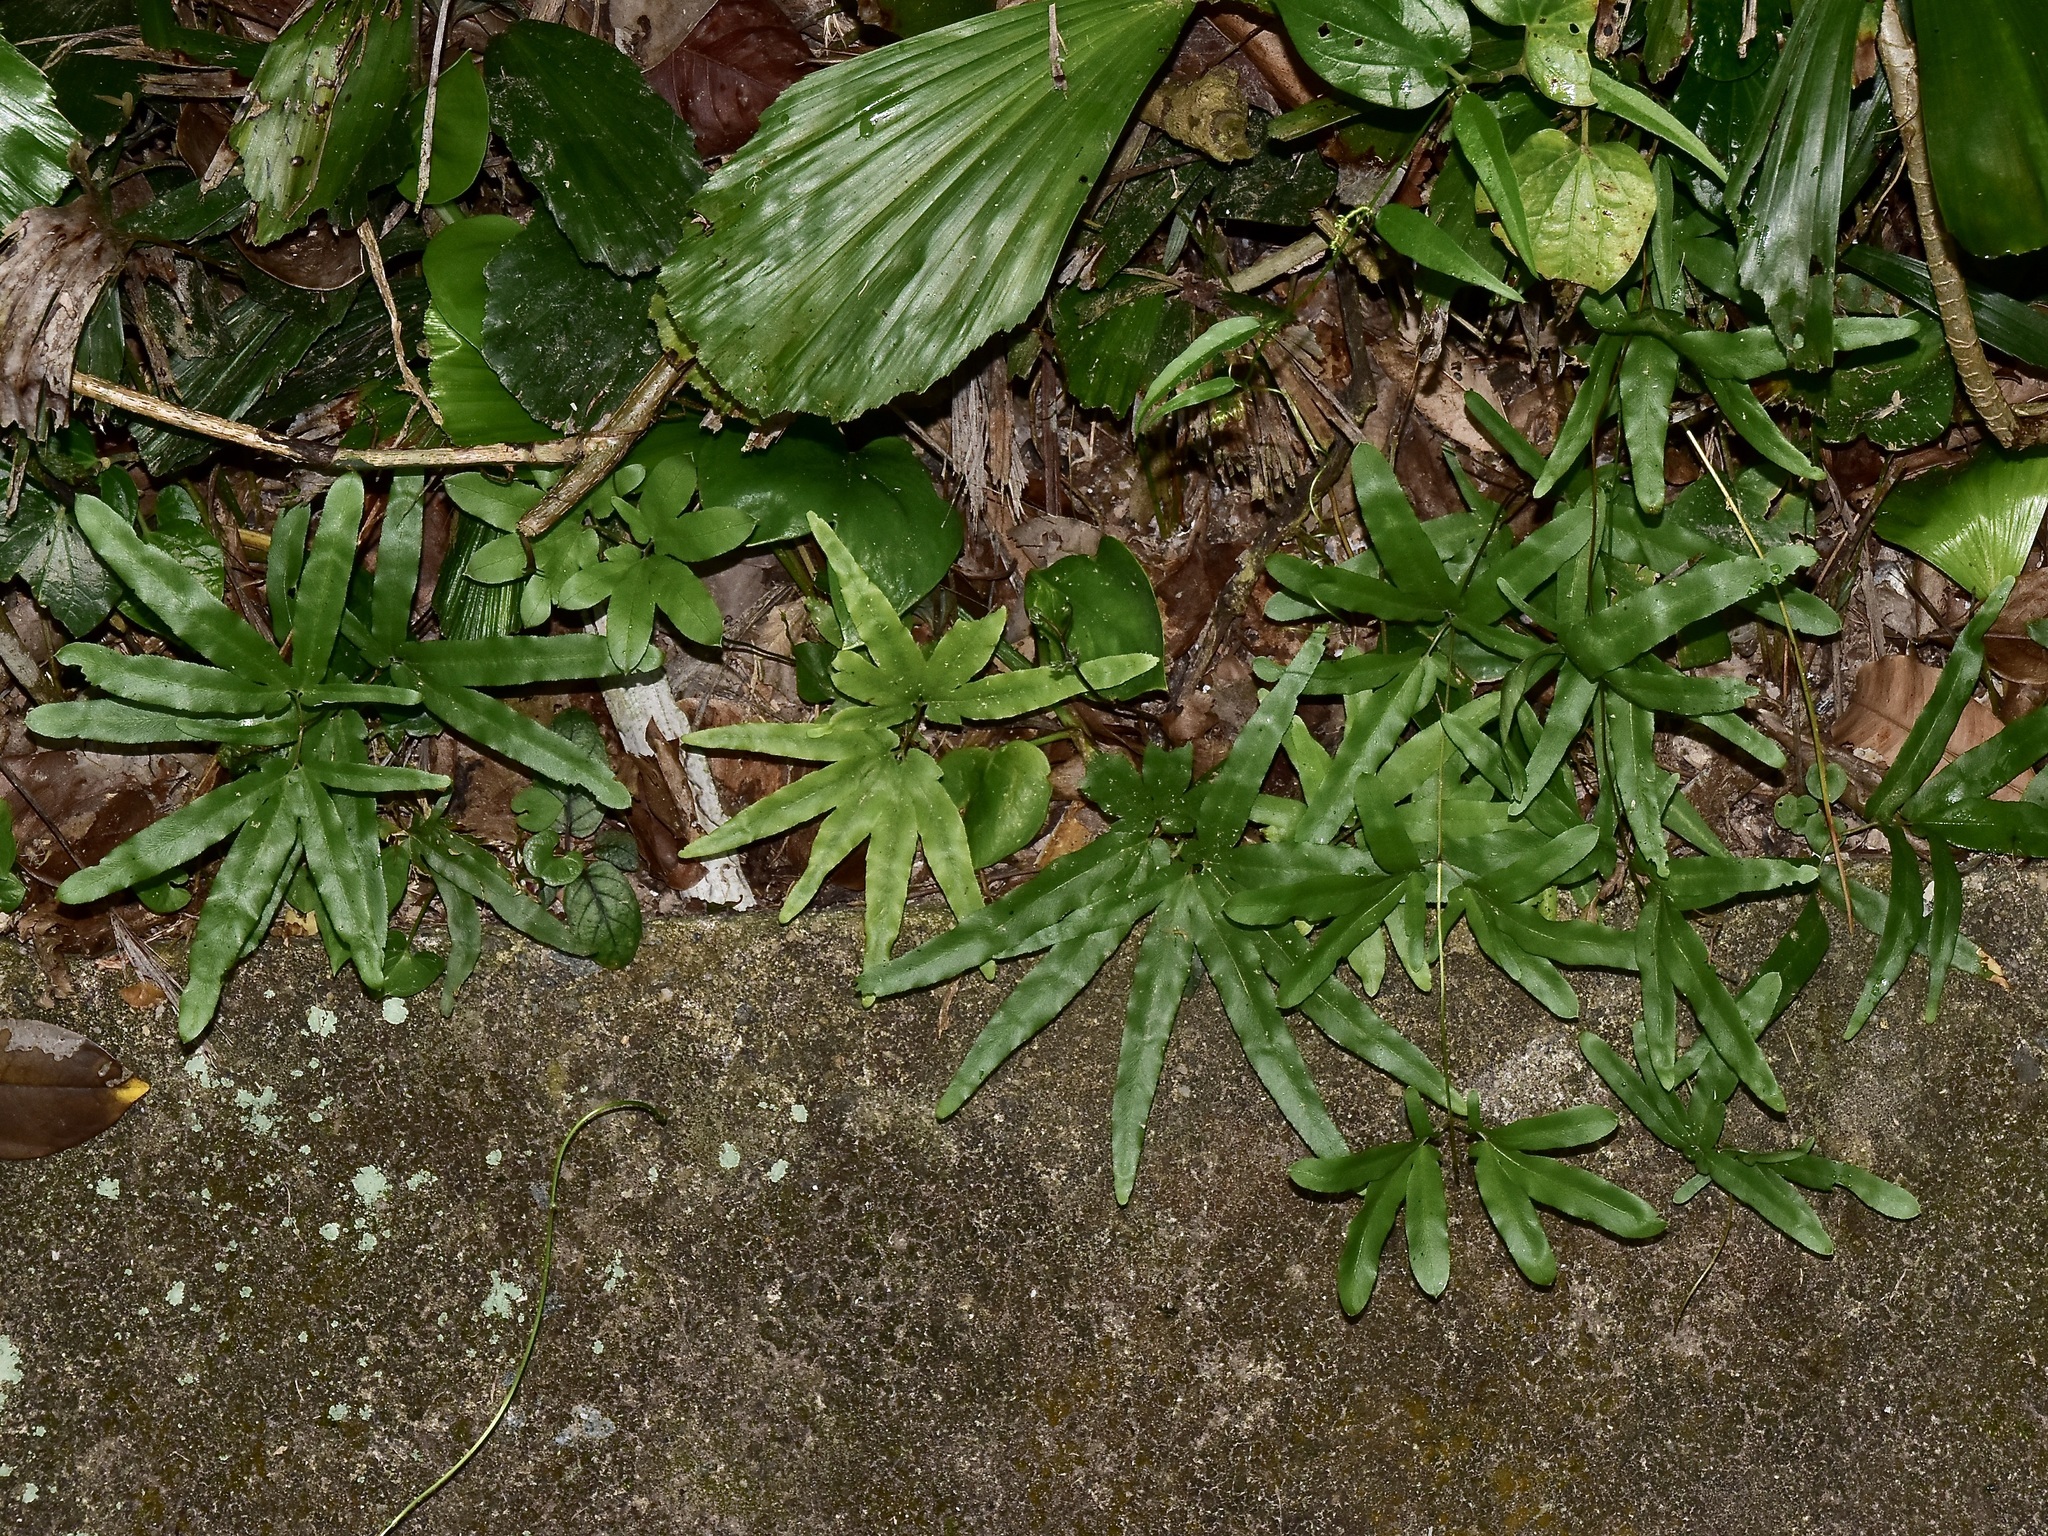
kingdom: Plantae
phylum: Tracheophyta
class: Polypodiopsida
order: Schizaeales
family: Lygodiaceae
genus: Lygodium
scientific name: Lygodium longifolium
